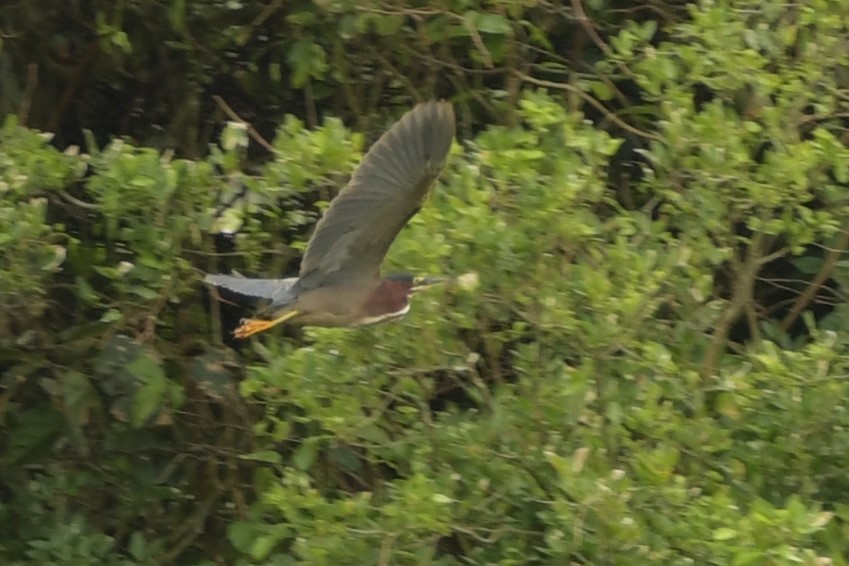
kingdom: Animalia
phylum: Chordata
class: Aves
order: Pelecaniformes
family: Ardeidae
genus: Butorides
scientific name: Butorides virescens
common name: Green heron
